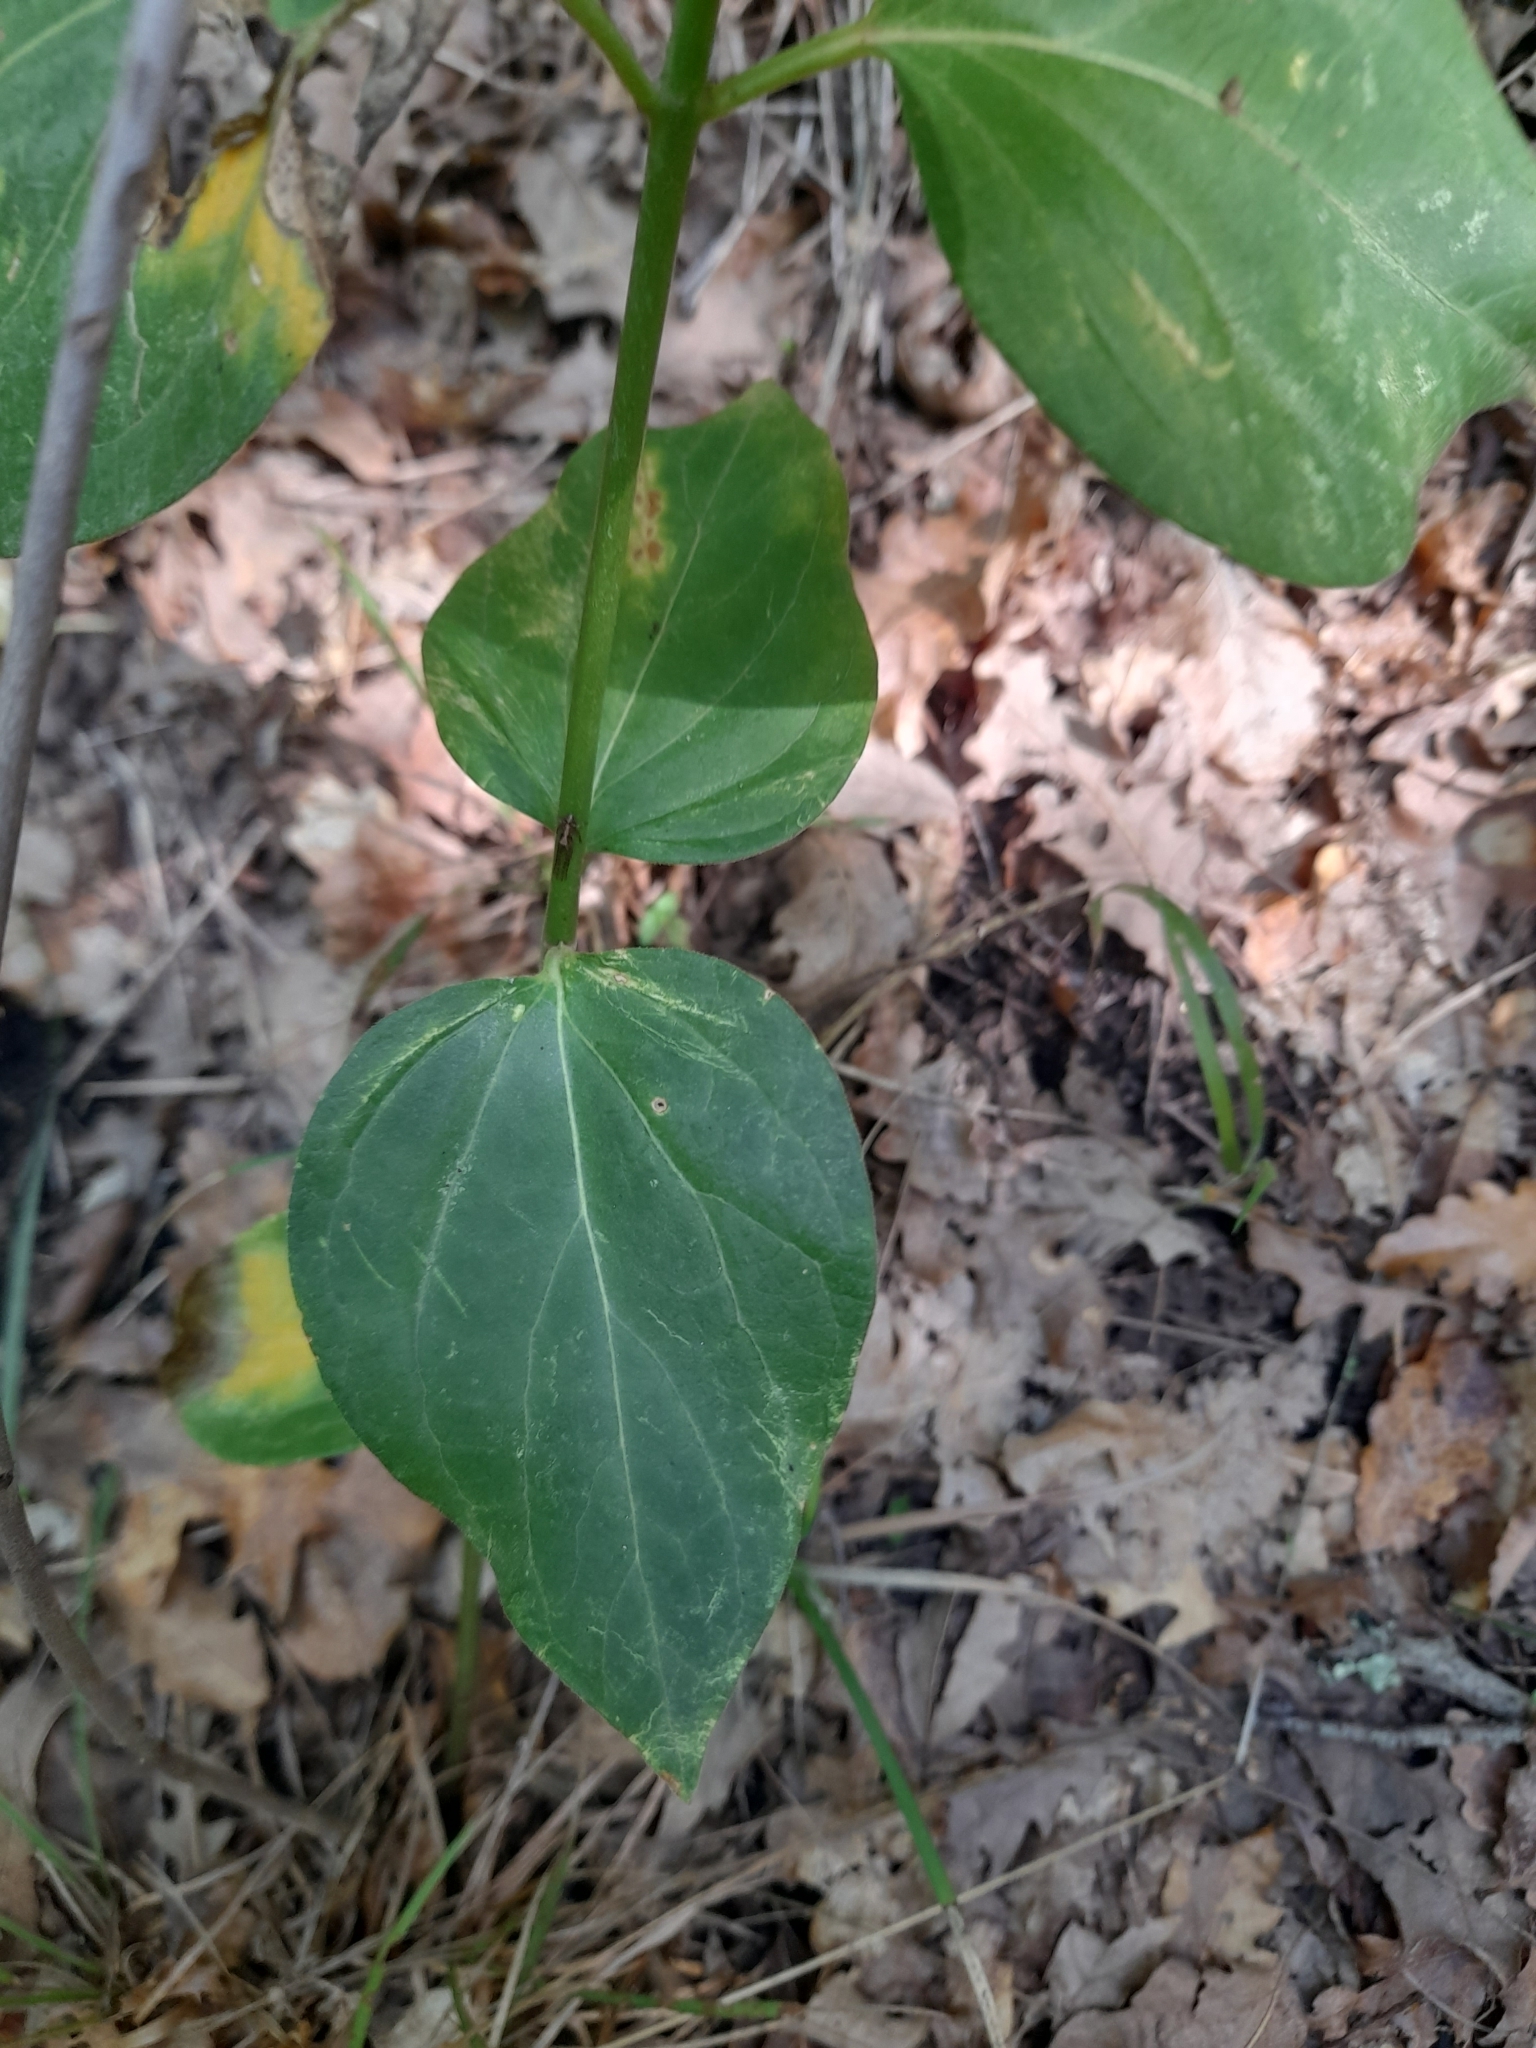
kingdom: Plantae
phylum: Tracheophyta
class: Magnoliopsida
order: Gentianales
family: Apocynaceae
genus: Vincetoxicum
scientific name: Vincetoxicum hirundinaria
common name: White swallowwort
